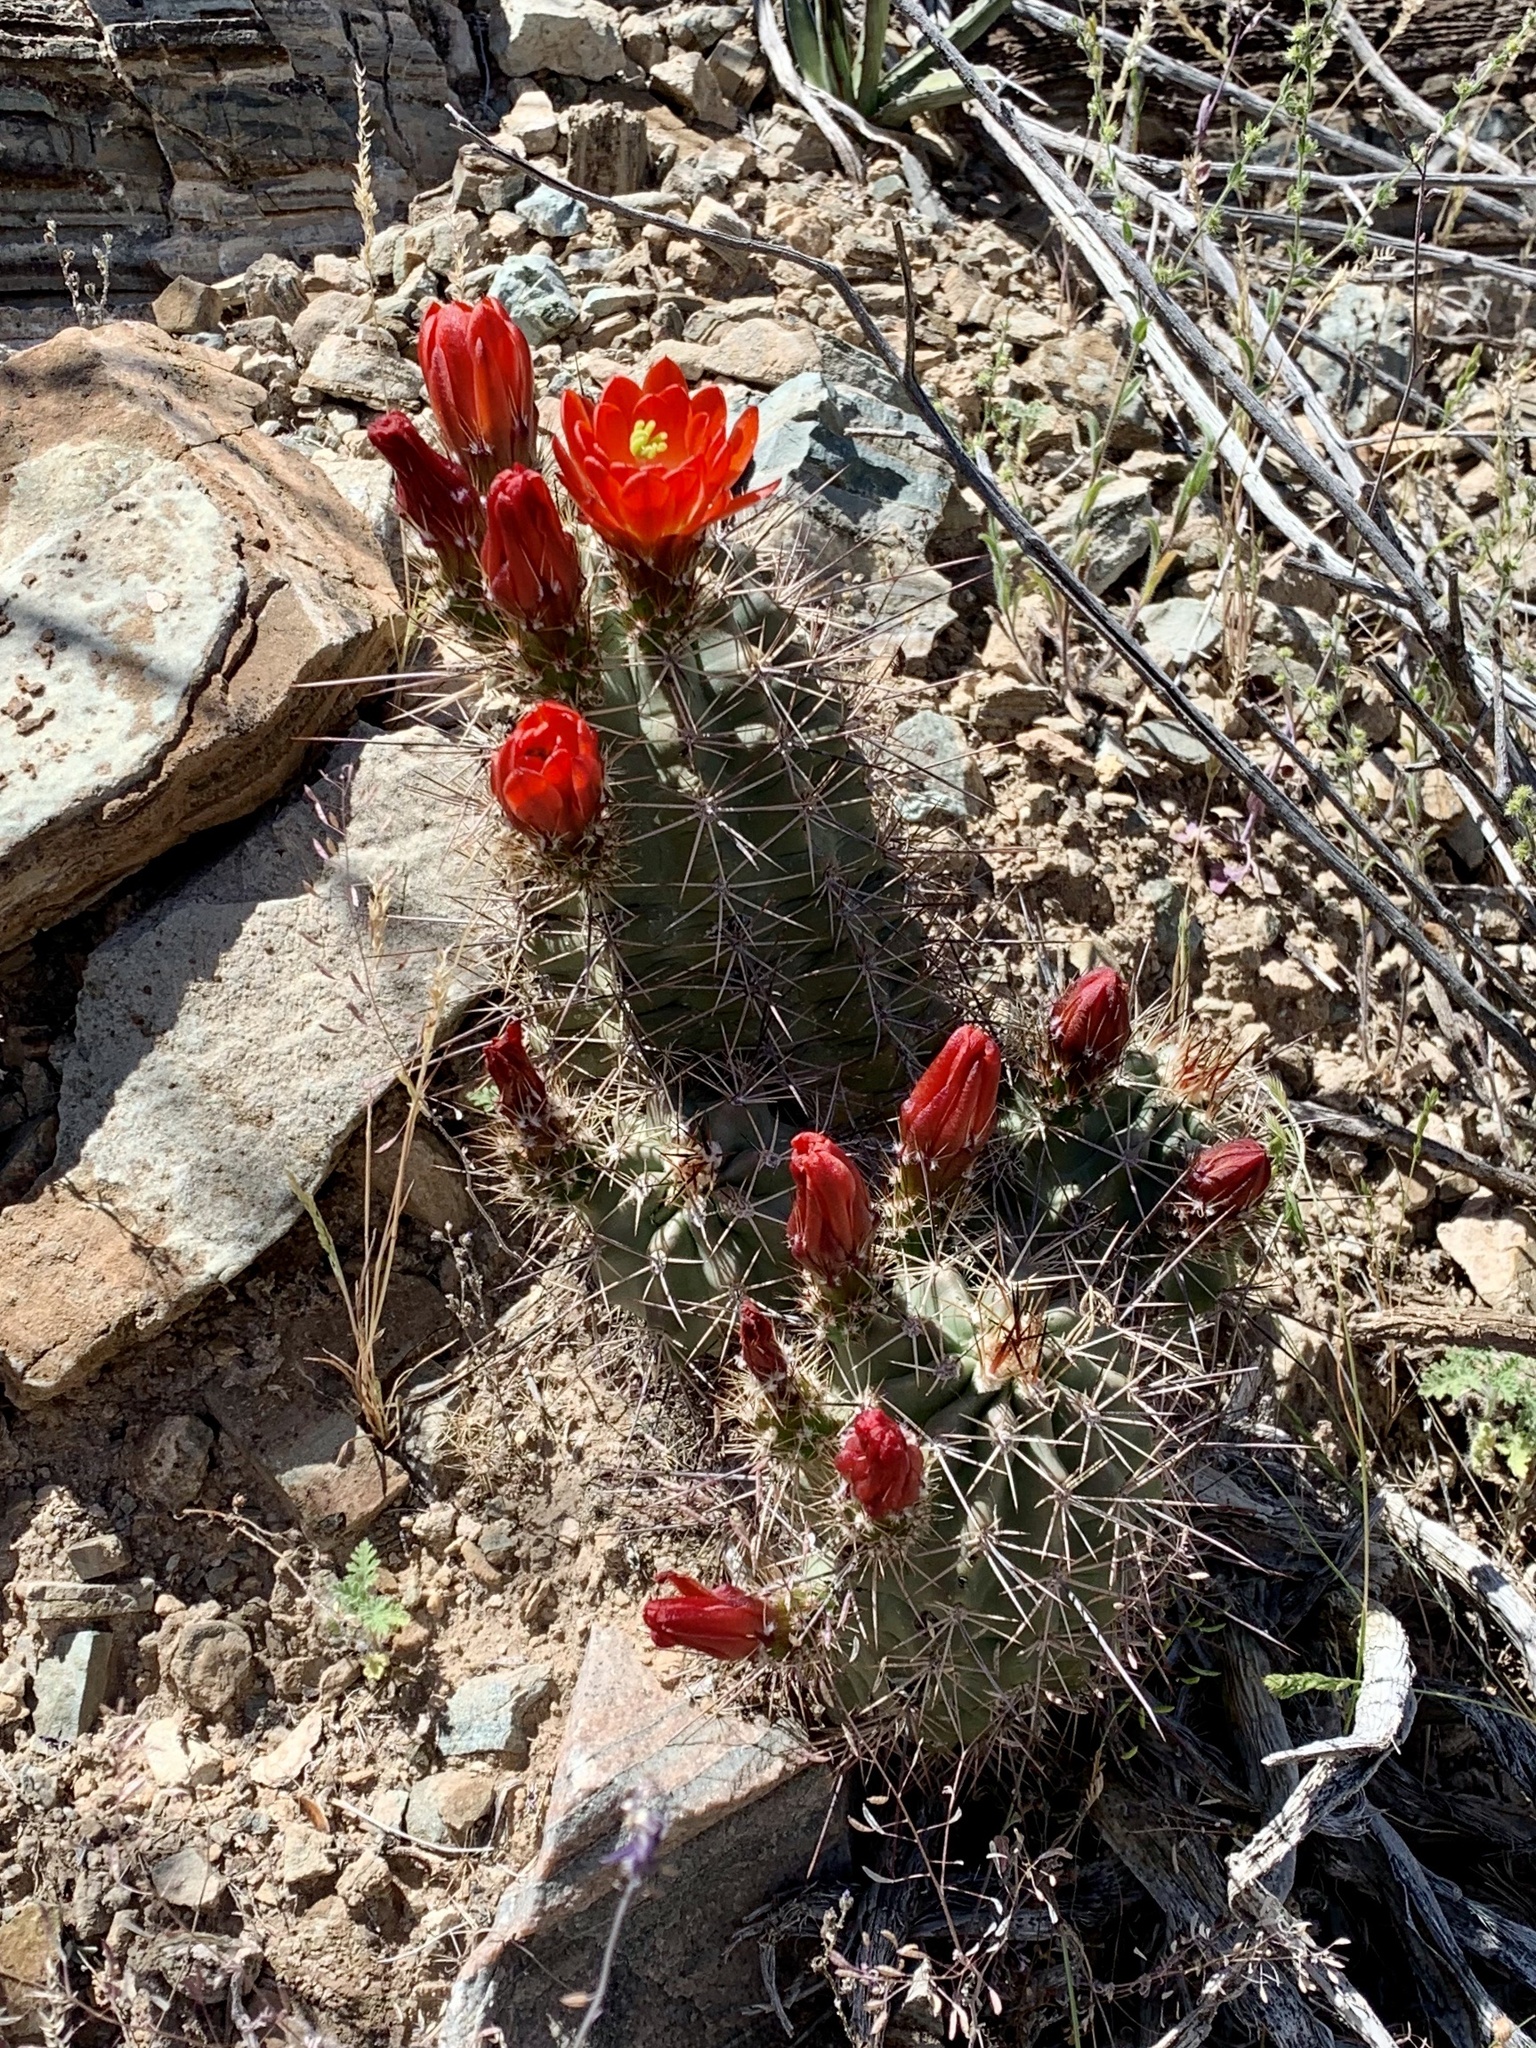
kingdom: Plantae
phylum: Tracheophyta
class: Magnoliopsida
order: Caryophyllales
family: Cactaceae
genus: Echinocereus
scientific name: Echinocereus coccineus
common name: Scarlet hedgehog cactus
